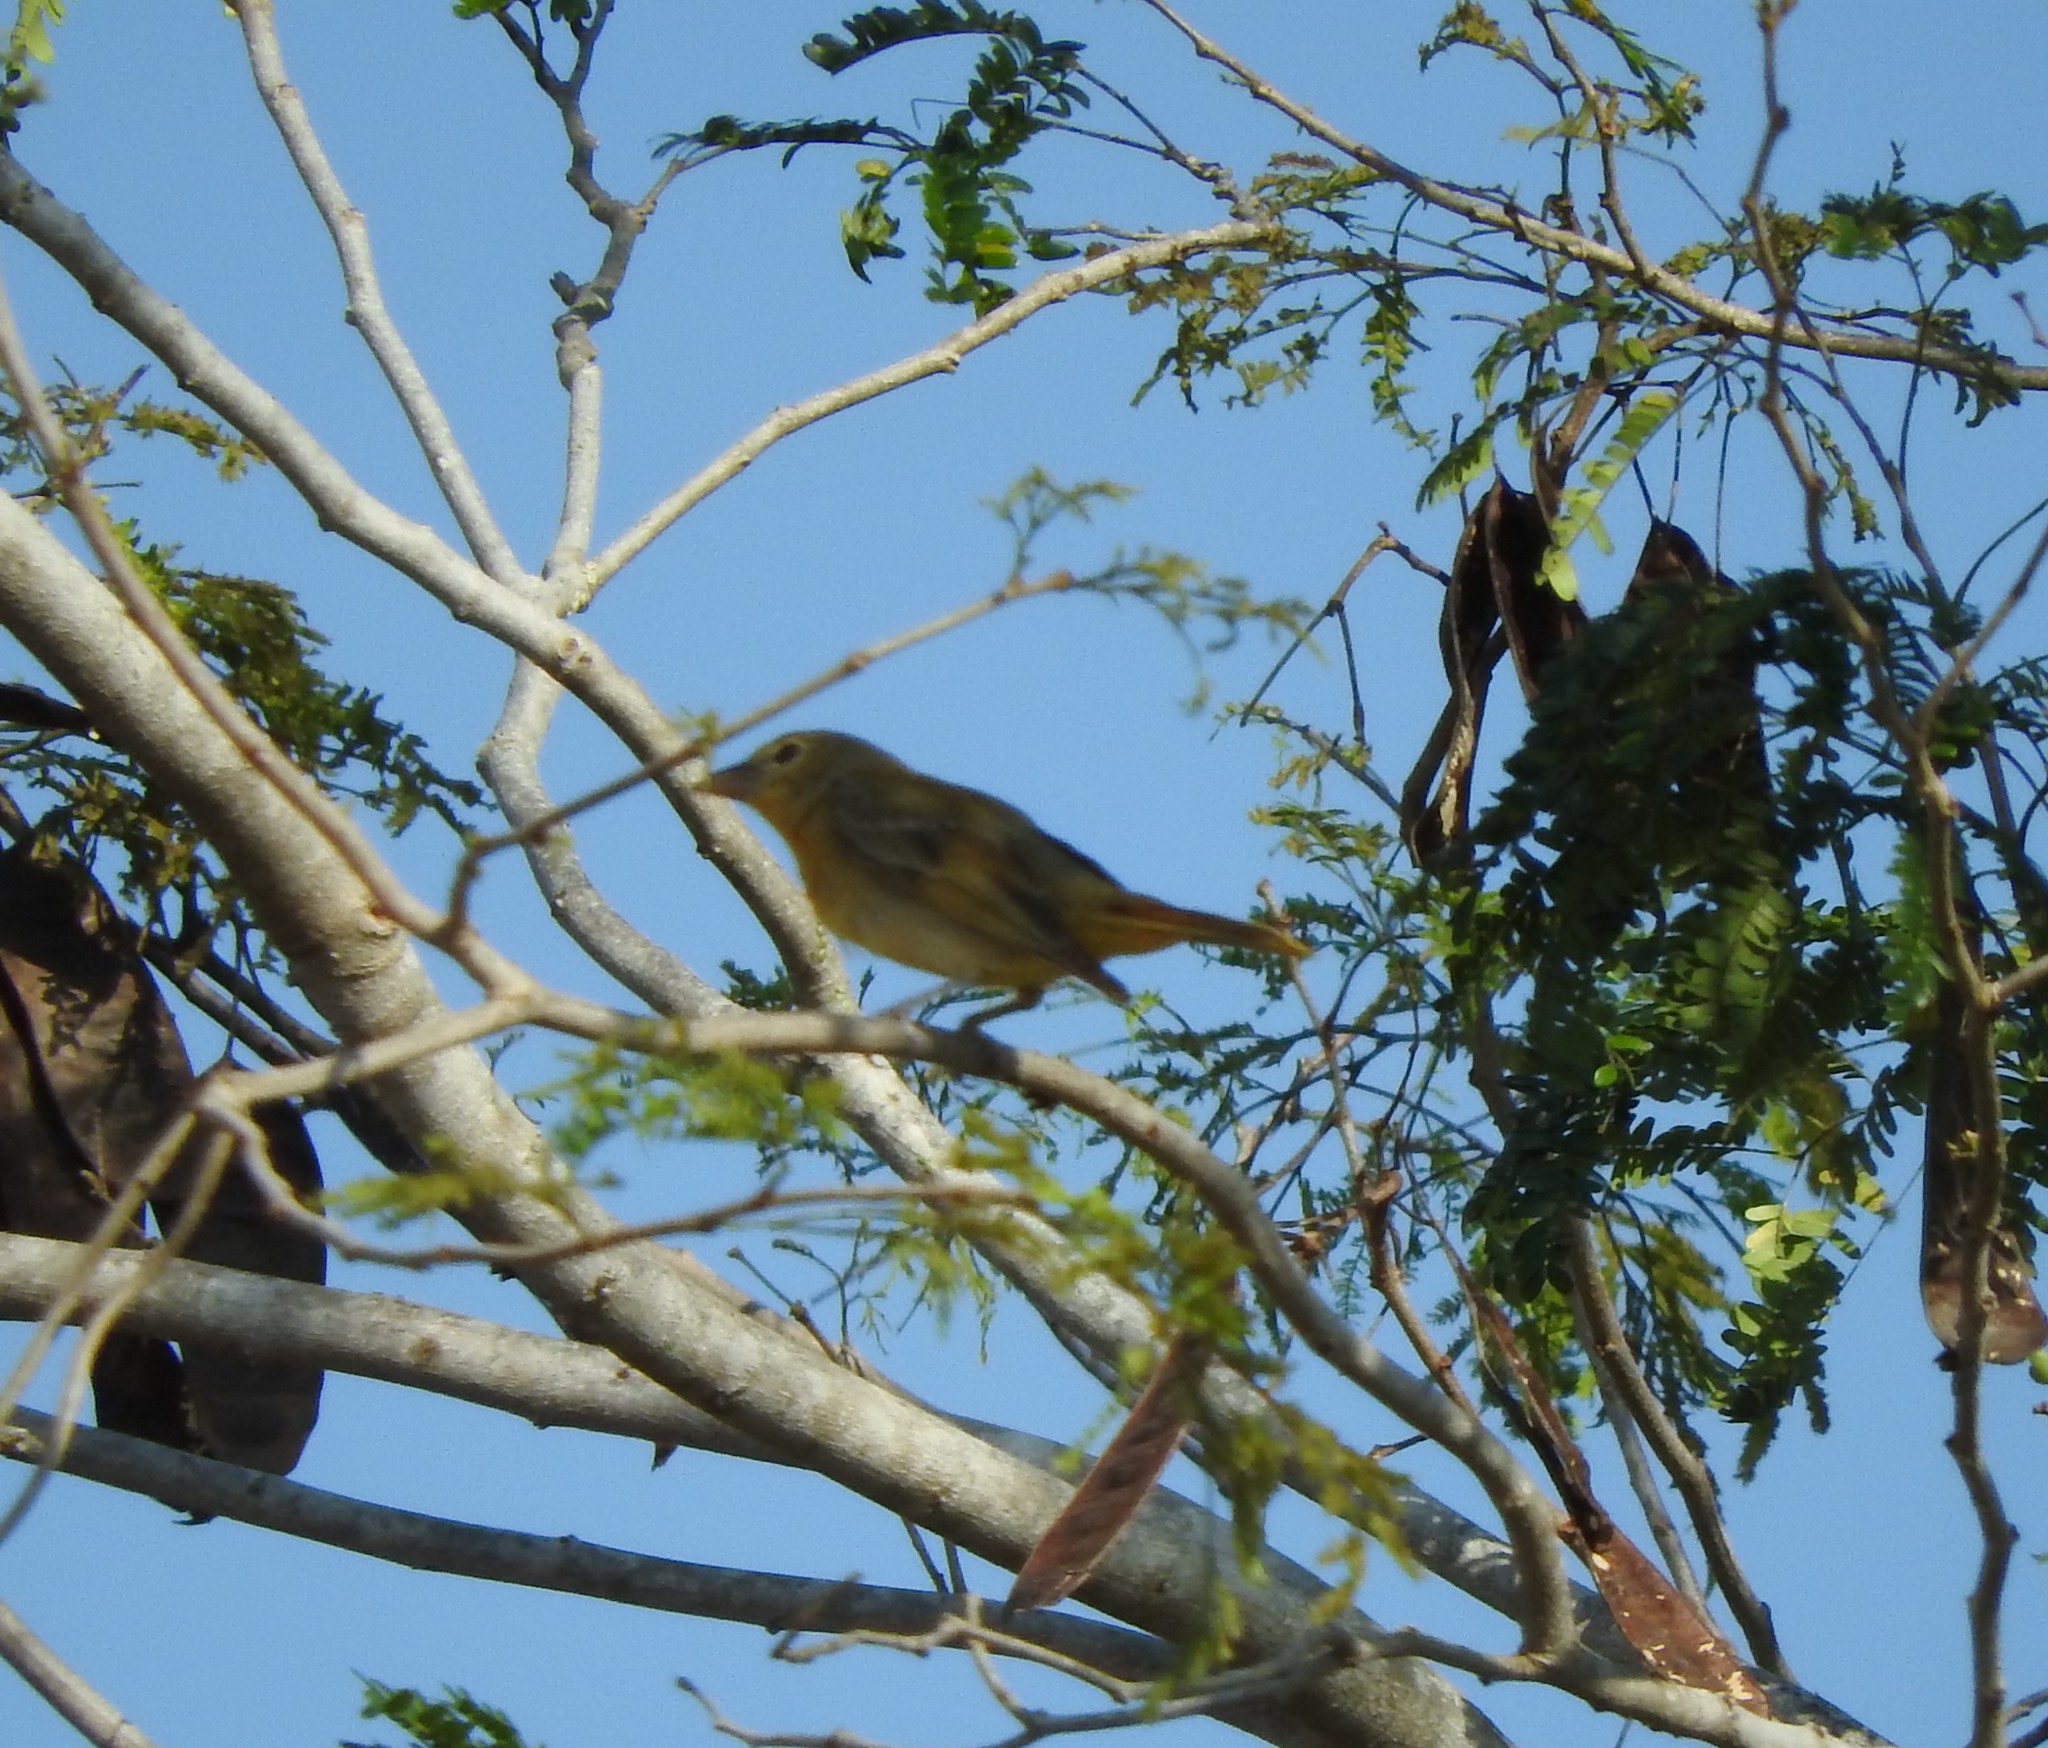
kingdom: Animalia
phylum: Chordata
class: Aves
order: Passeriformes
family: Cardinalidae
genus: Piranga
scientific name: Piranga rubra
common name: Summer tanager
